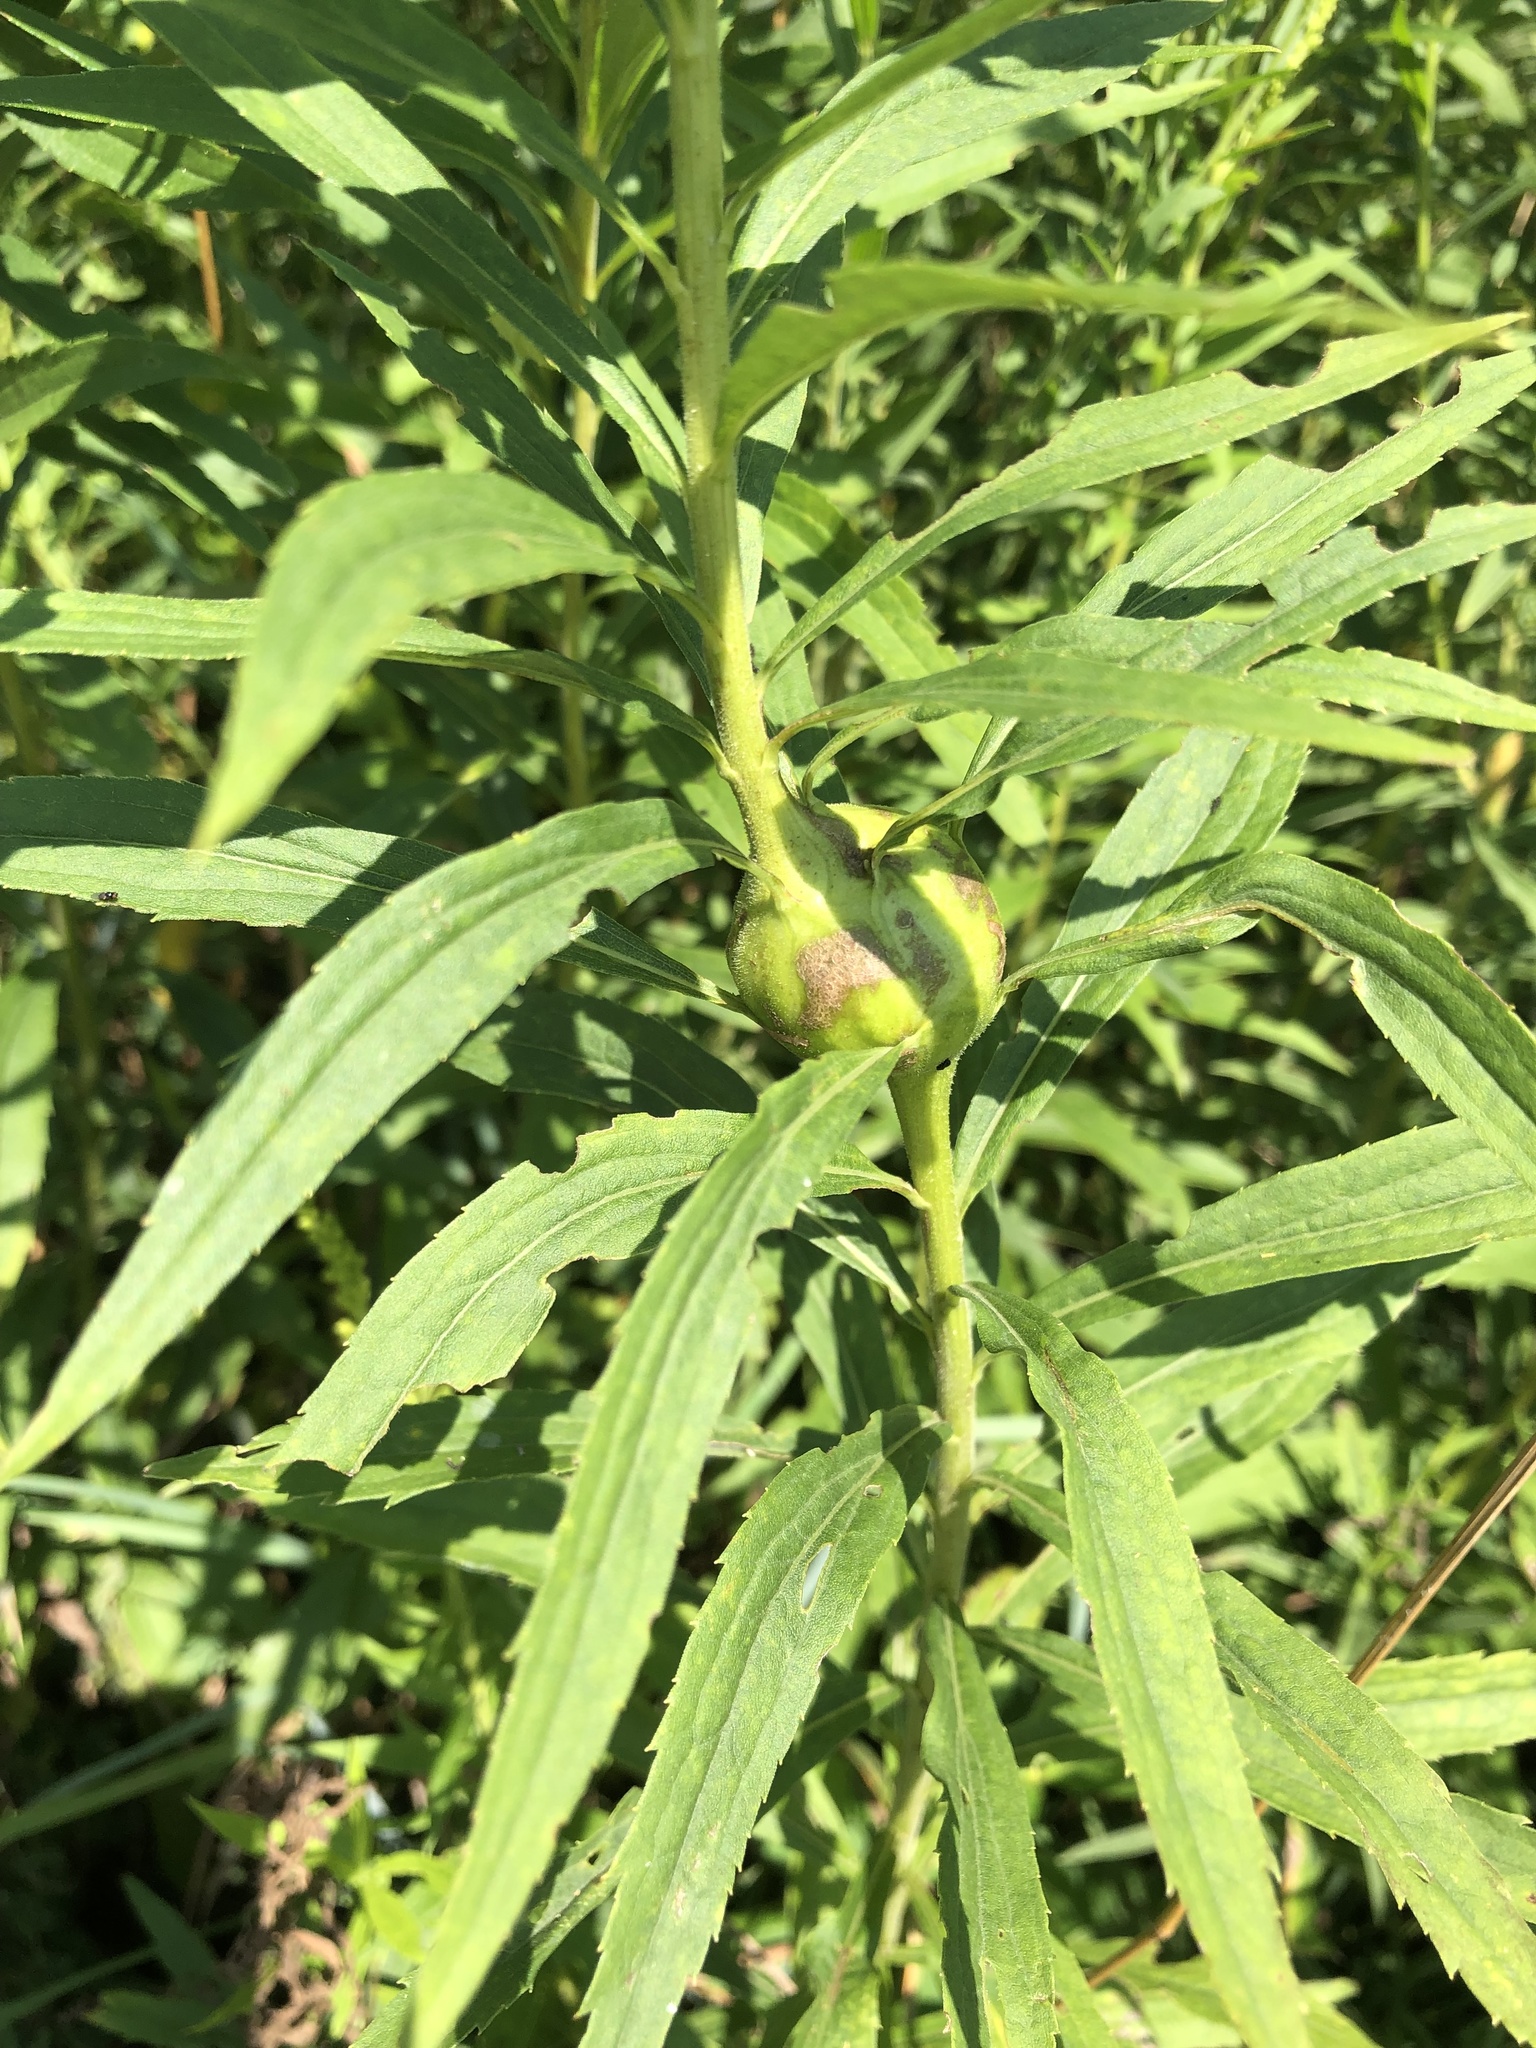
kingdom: Animalia
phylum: Arthropoda
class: Insecta
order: Diptera
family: Tephritidae
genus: Eurosta
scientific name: Eurosta solidaginis
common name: Goldenrod gall fly
